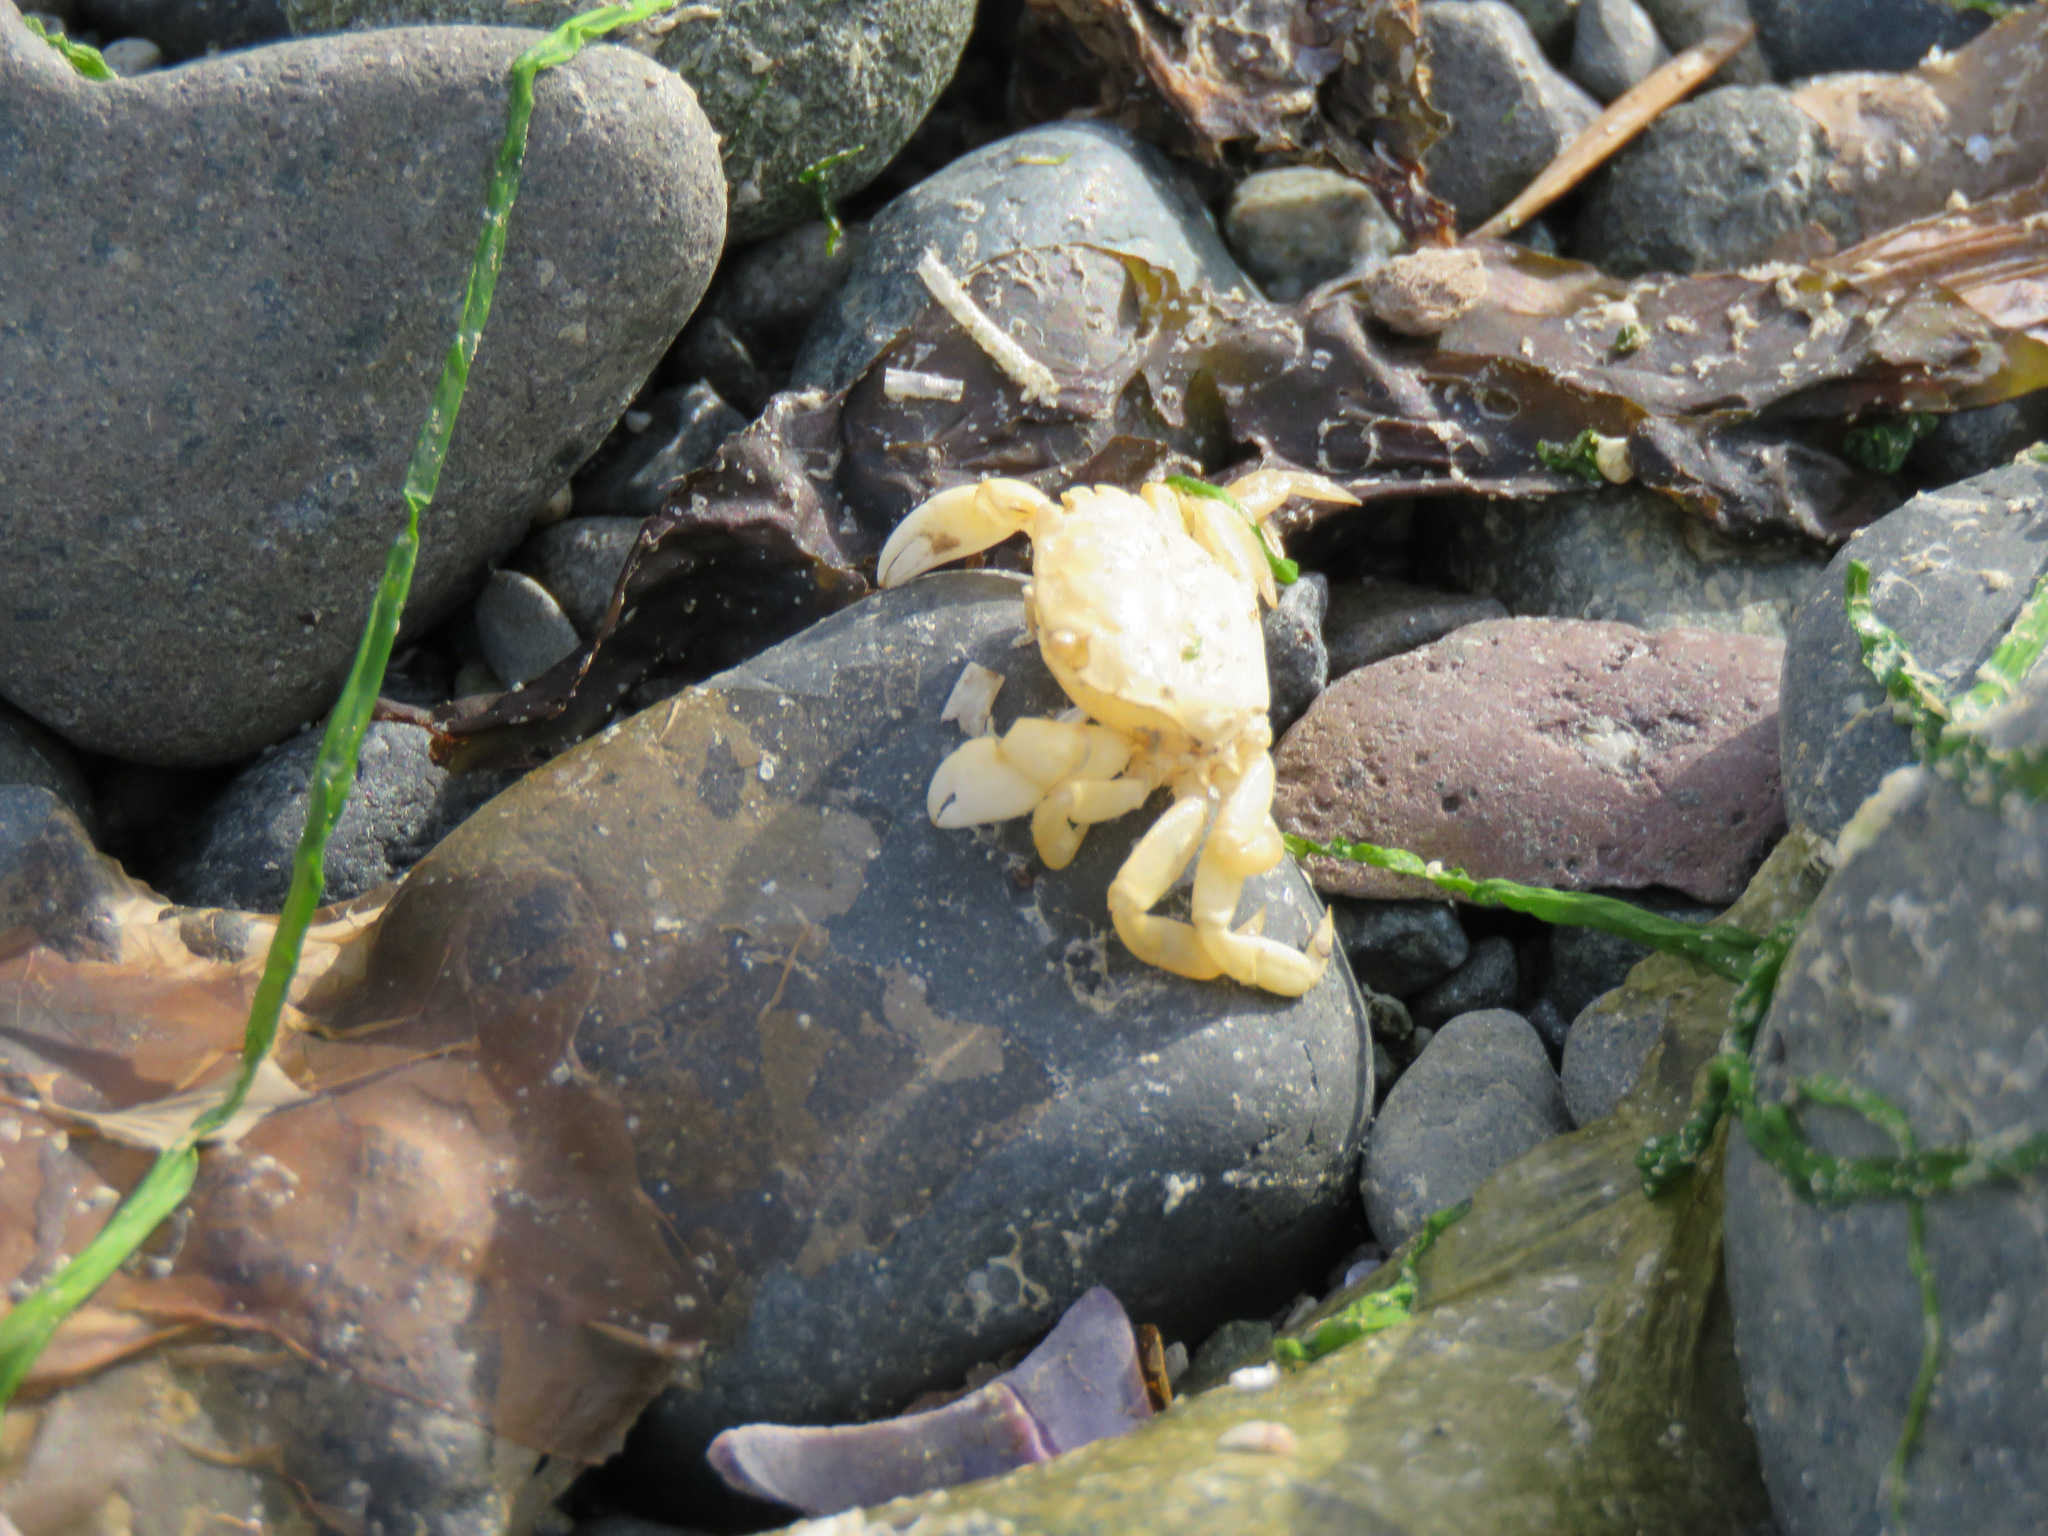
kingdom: Animalia
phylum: Arthropoda
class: Malacostraca
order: Decapoda
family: Varunidae
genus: Hemigrapsus
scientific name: Hemigrapsus nudus
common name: Purple shore crab
